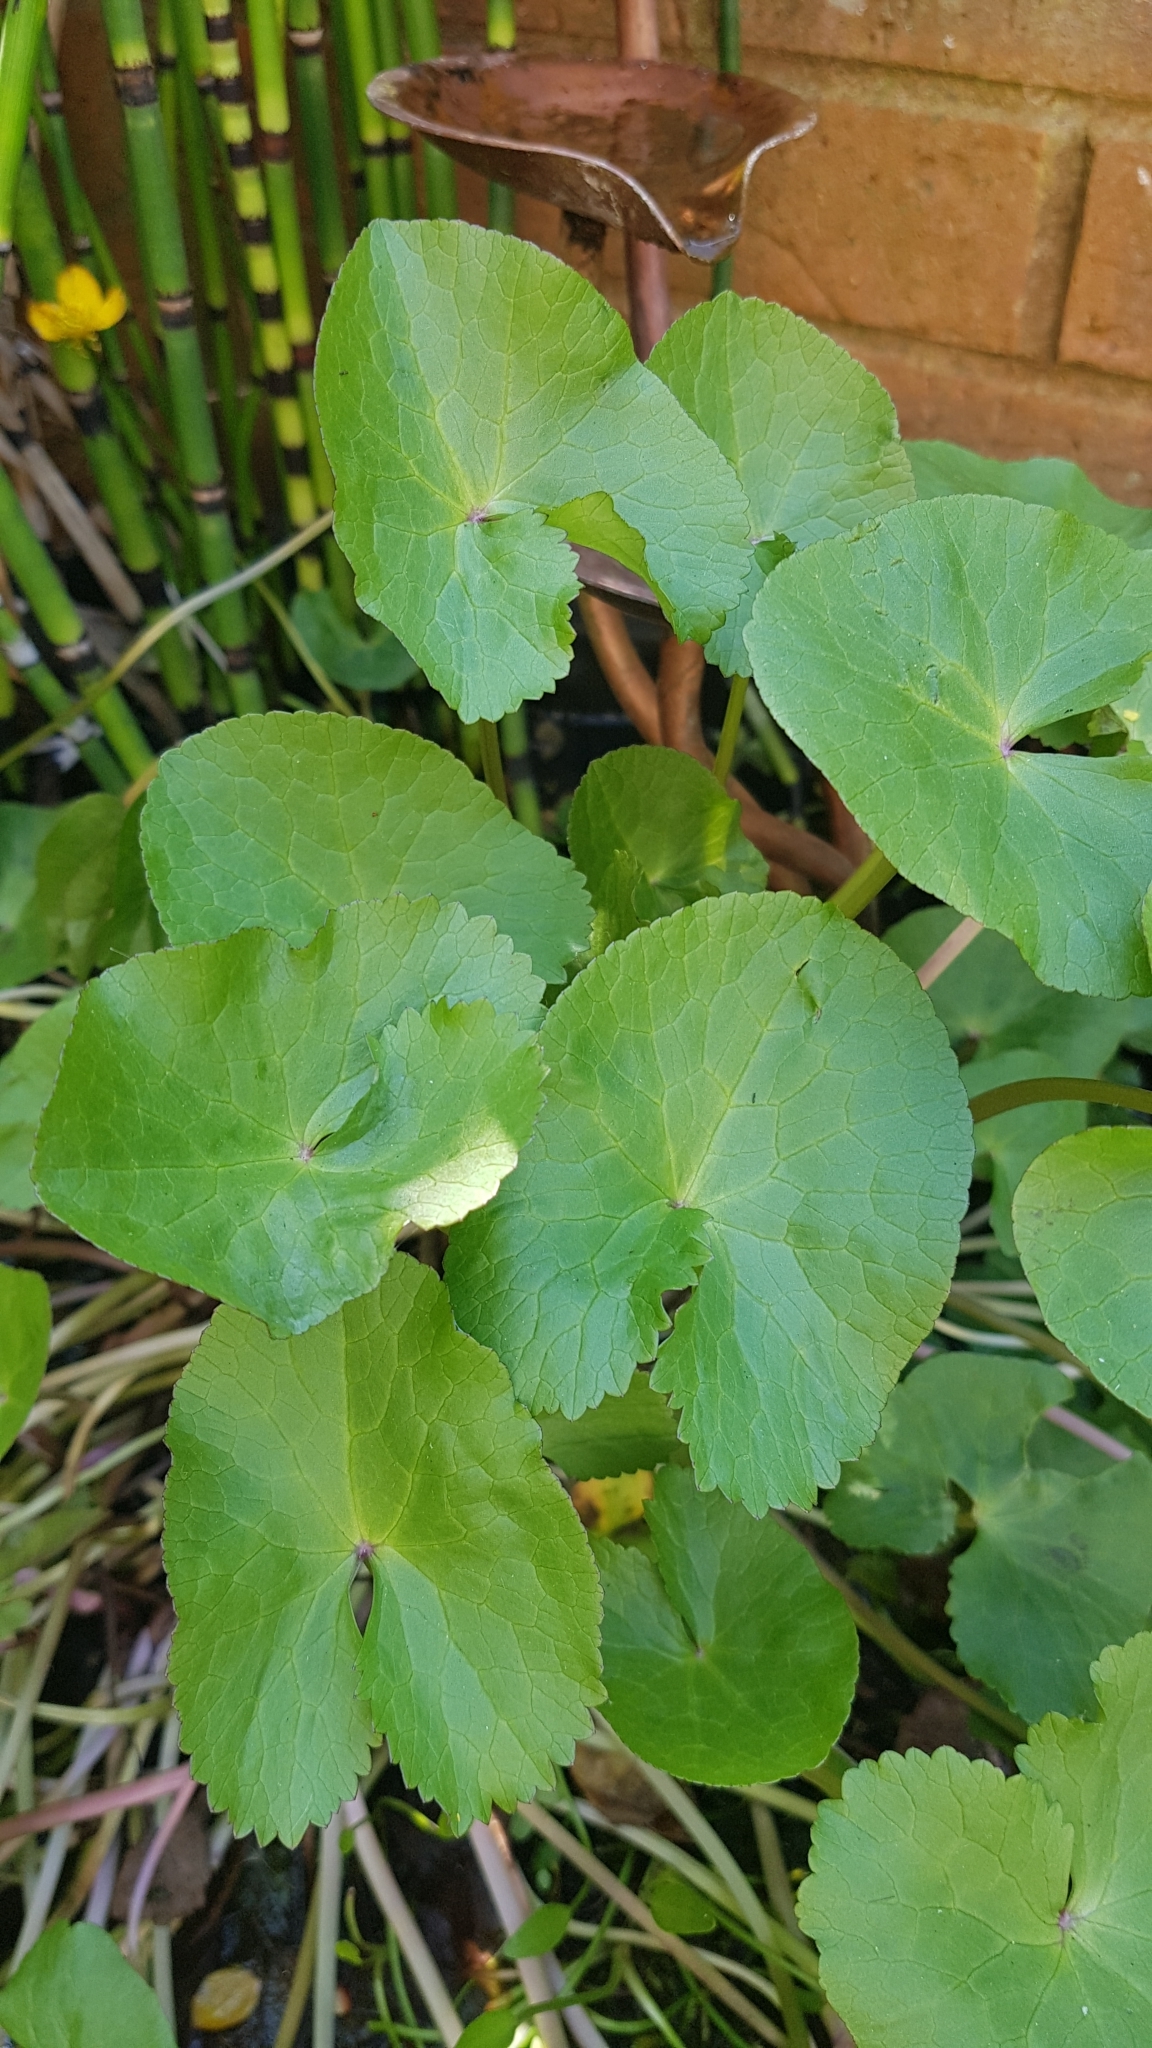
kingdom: Plantae
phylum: Tracheophyta
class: Magnoliopsida
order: Ranunculales
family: Ranunculaceae
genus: Caltha
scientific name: Caltha palustris
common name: Marsh marigold
